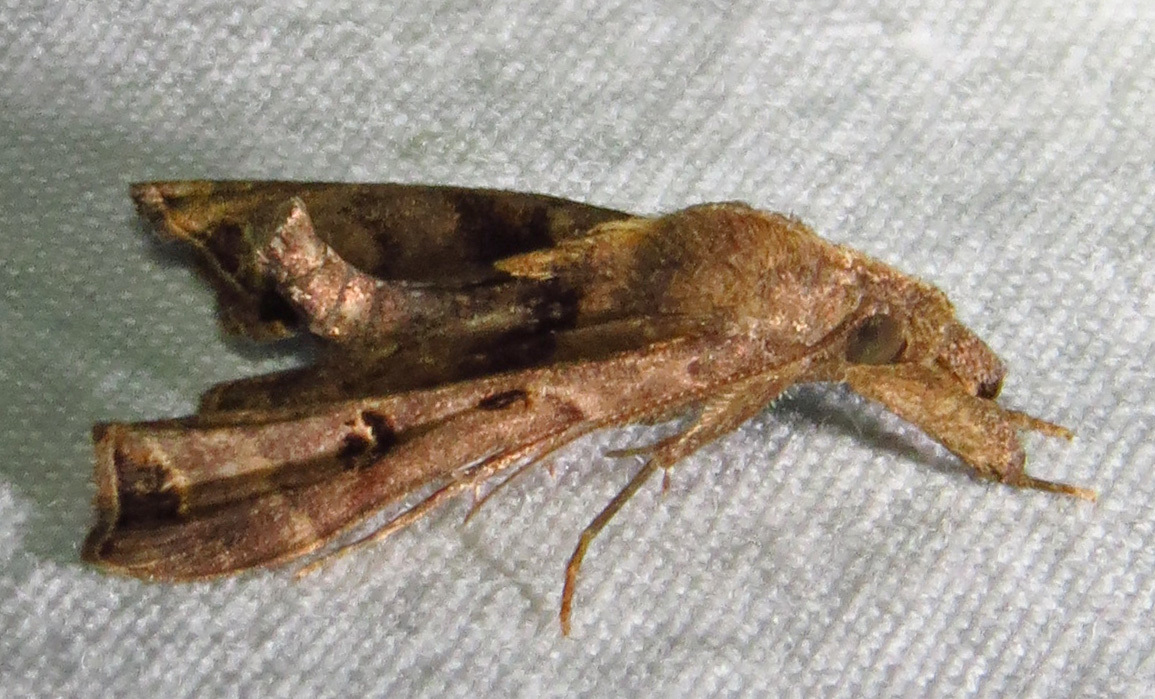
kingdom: Animalia
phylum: Arthropoda
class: Insecta
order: Lepidoptera
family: Erebidae
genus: Palthis
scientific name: Palthis asopialis
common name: Faint-spotted palthis moth
